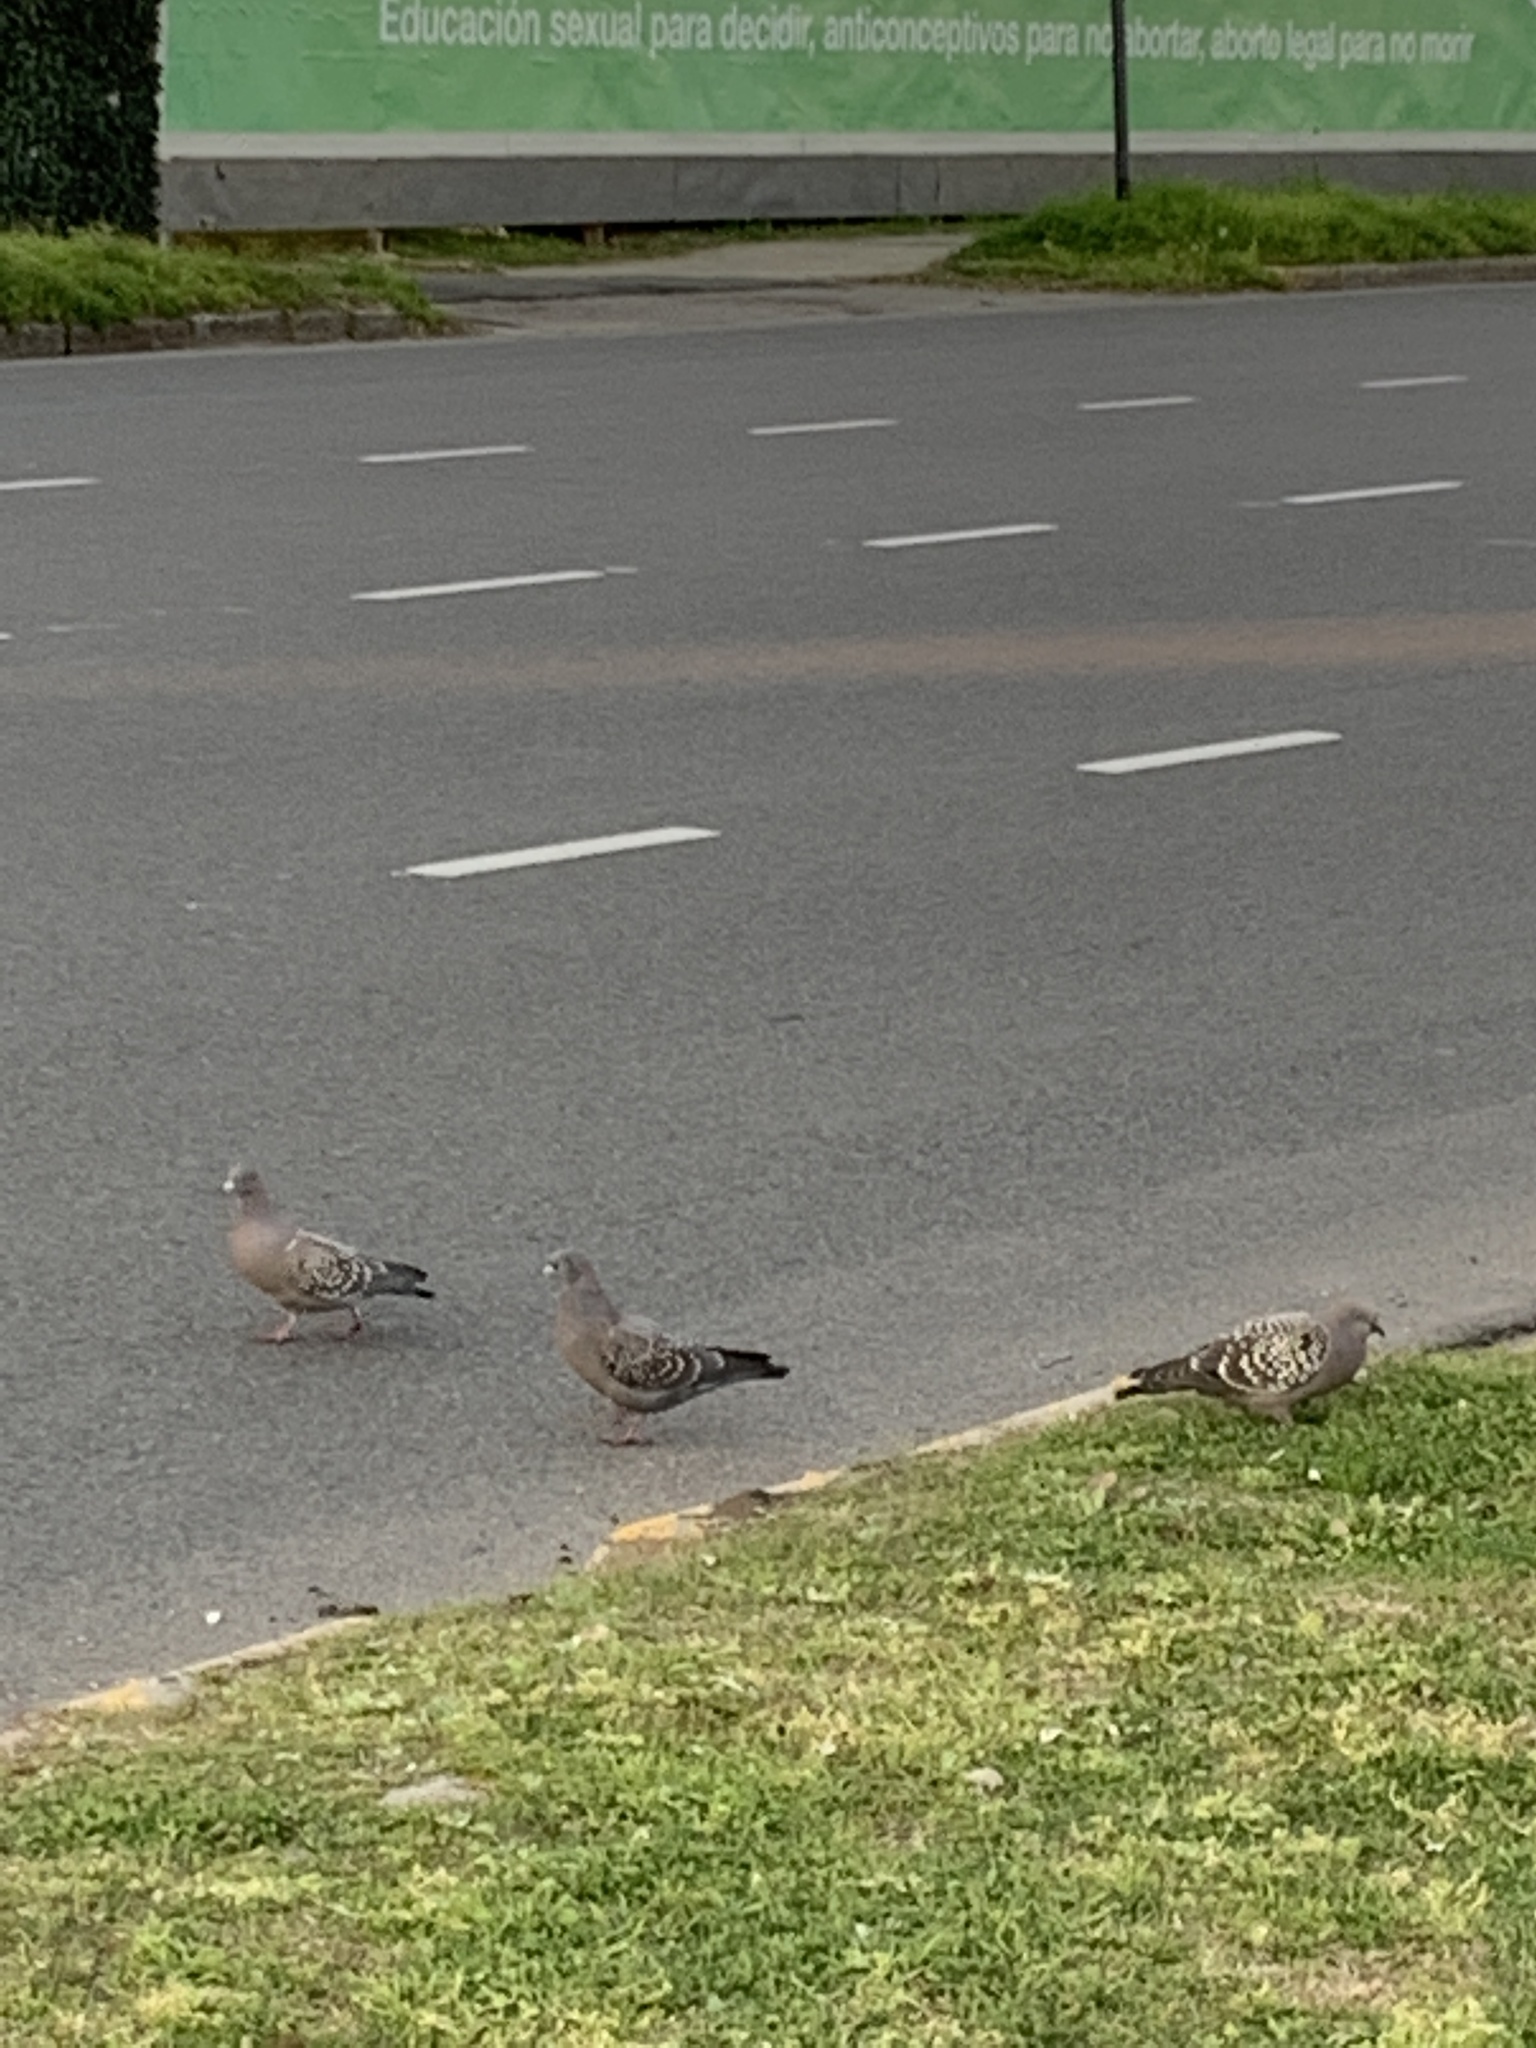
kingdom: Animalia
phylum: Chordata
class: Aves
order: Columbiformes
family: Columbidae
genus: Patagioenas
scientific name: Patagioenas maculosa
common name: Spot-winged pigeon
